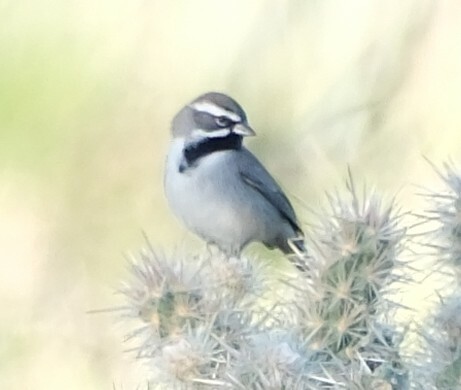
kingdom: Animalia
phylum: Chordata
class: Aves
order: Passeriformes
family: Passerellidae
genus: Amphispiza
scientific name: Amphispiza bilineata
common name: Black-throated sparrow
